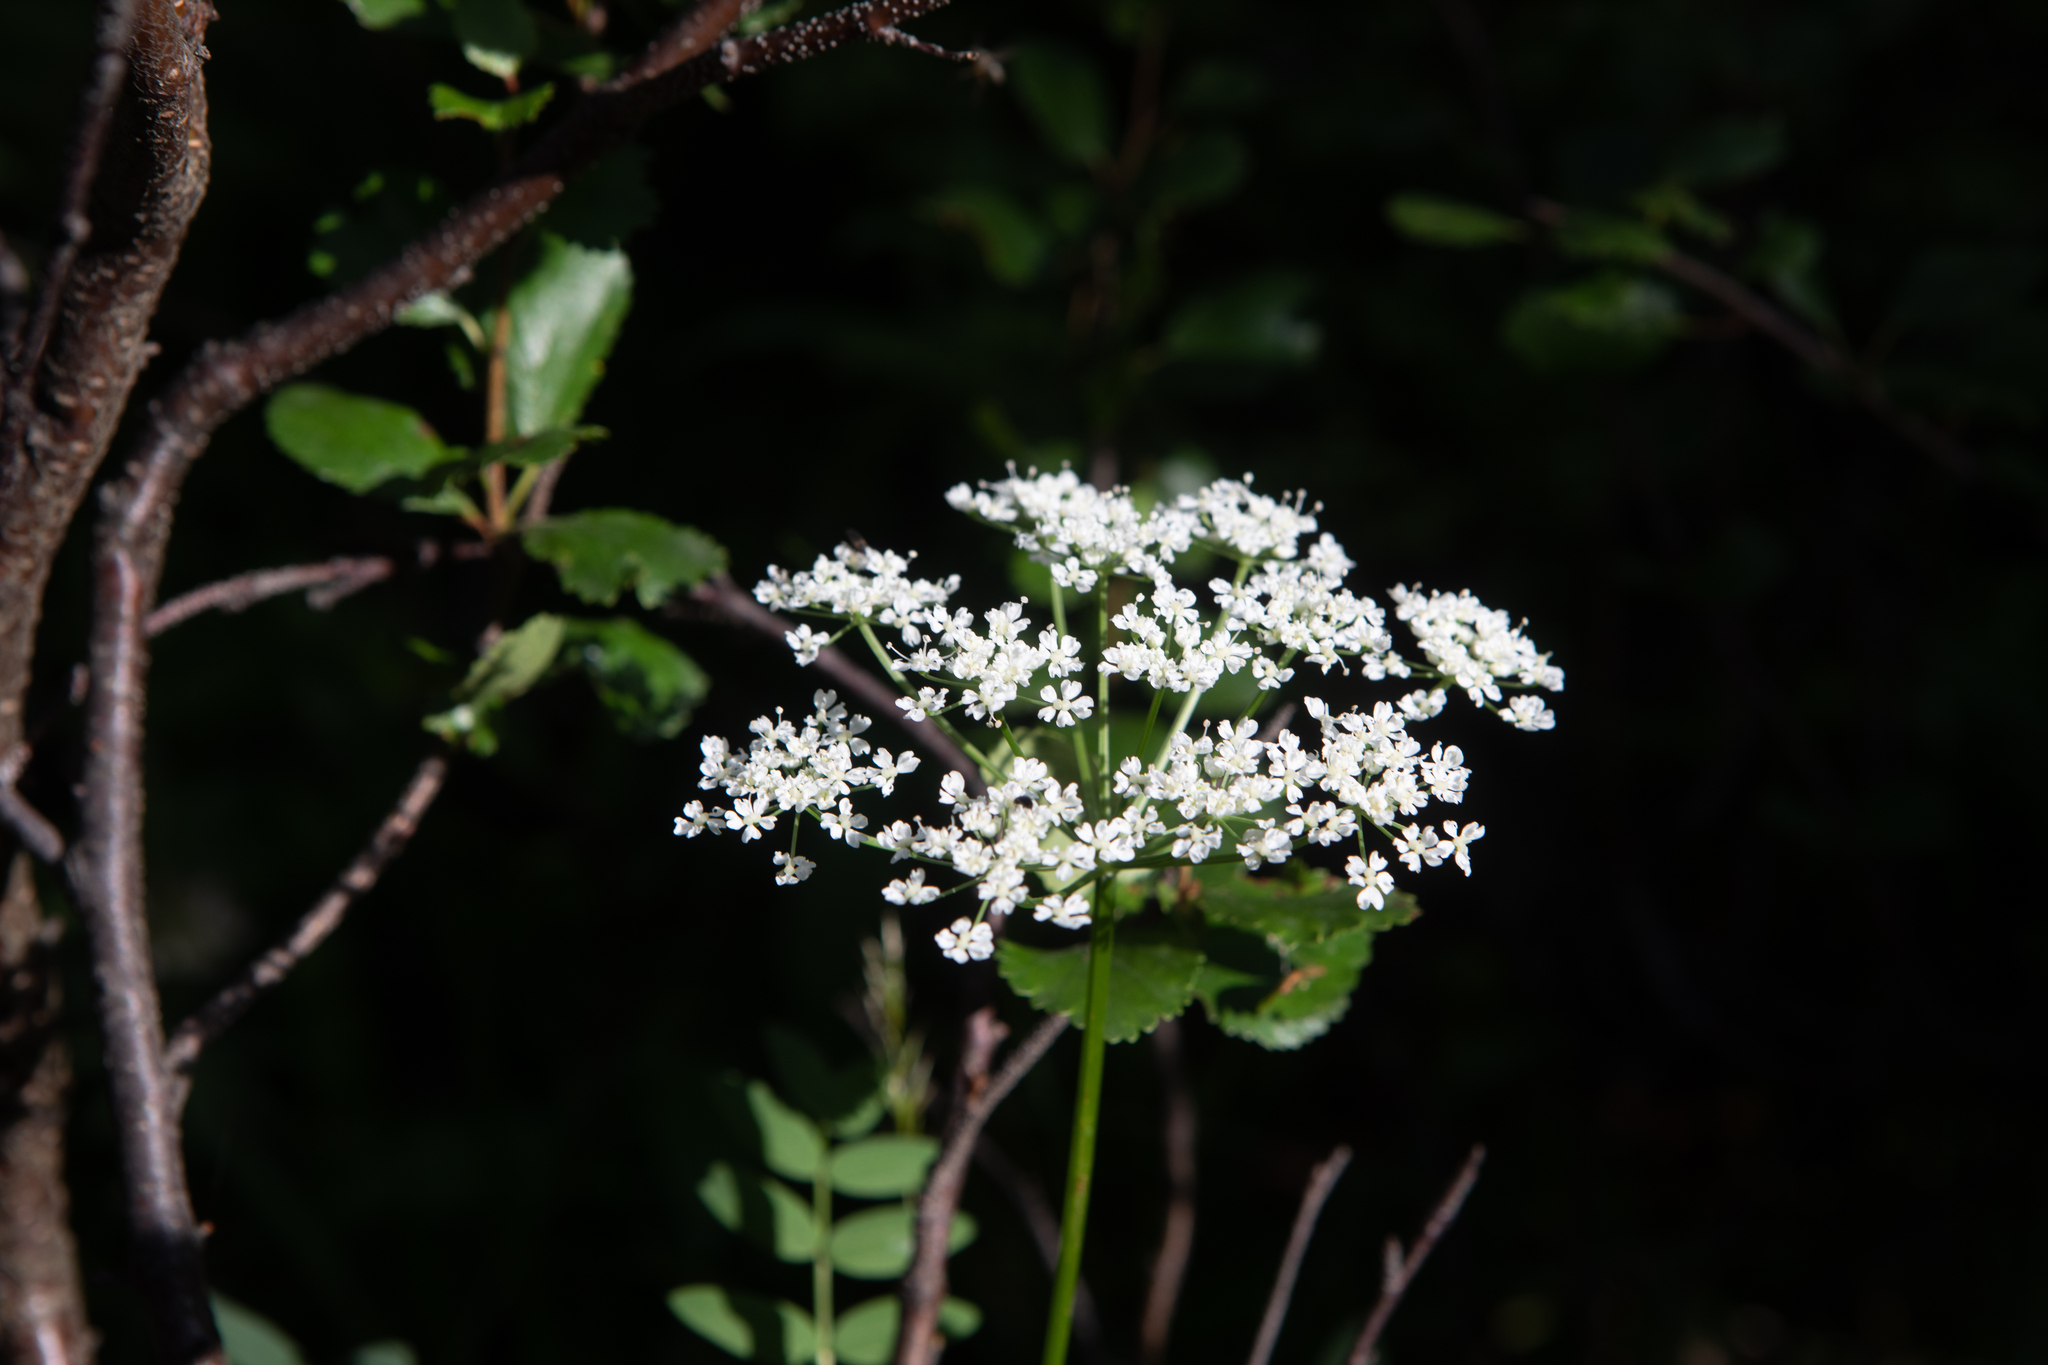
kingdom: Plantae
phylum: Tracheophyta
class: Magnoliopsida
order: Apiales
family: Apiaceae
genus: Aegopodium
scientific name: Aegopodium alpestre
